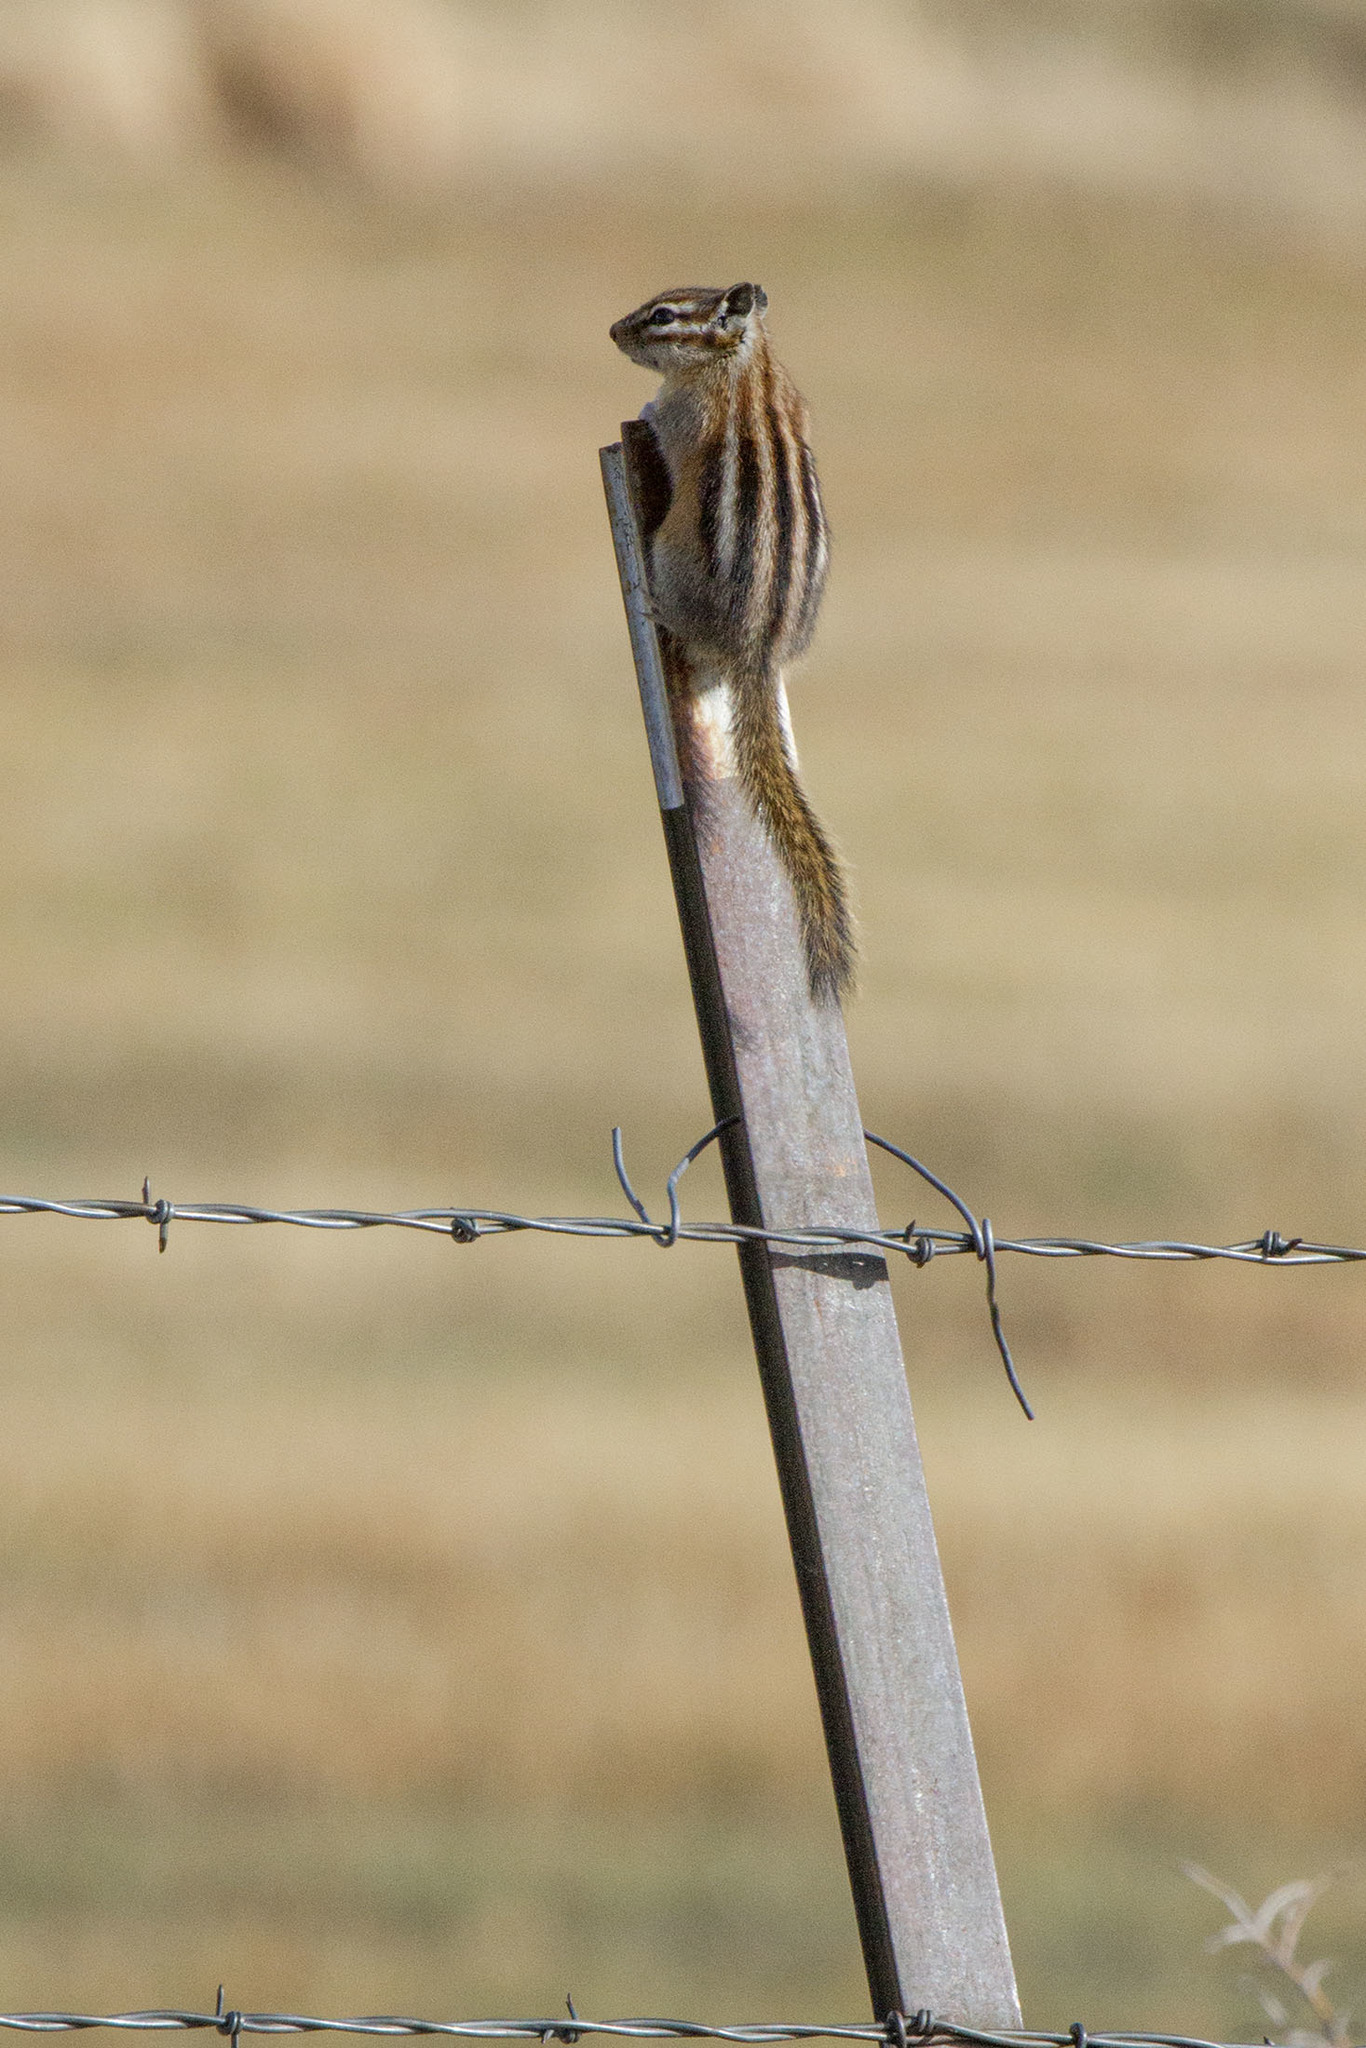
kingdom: Animalia
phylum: Chordata
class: Mammalia
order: Rodentia
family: Sciuridae
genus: Tamias
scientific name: Tamias minimus
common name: Least chipmunk
